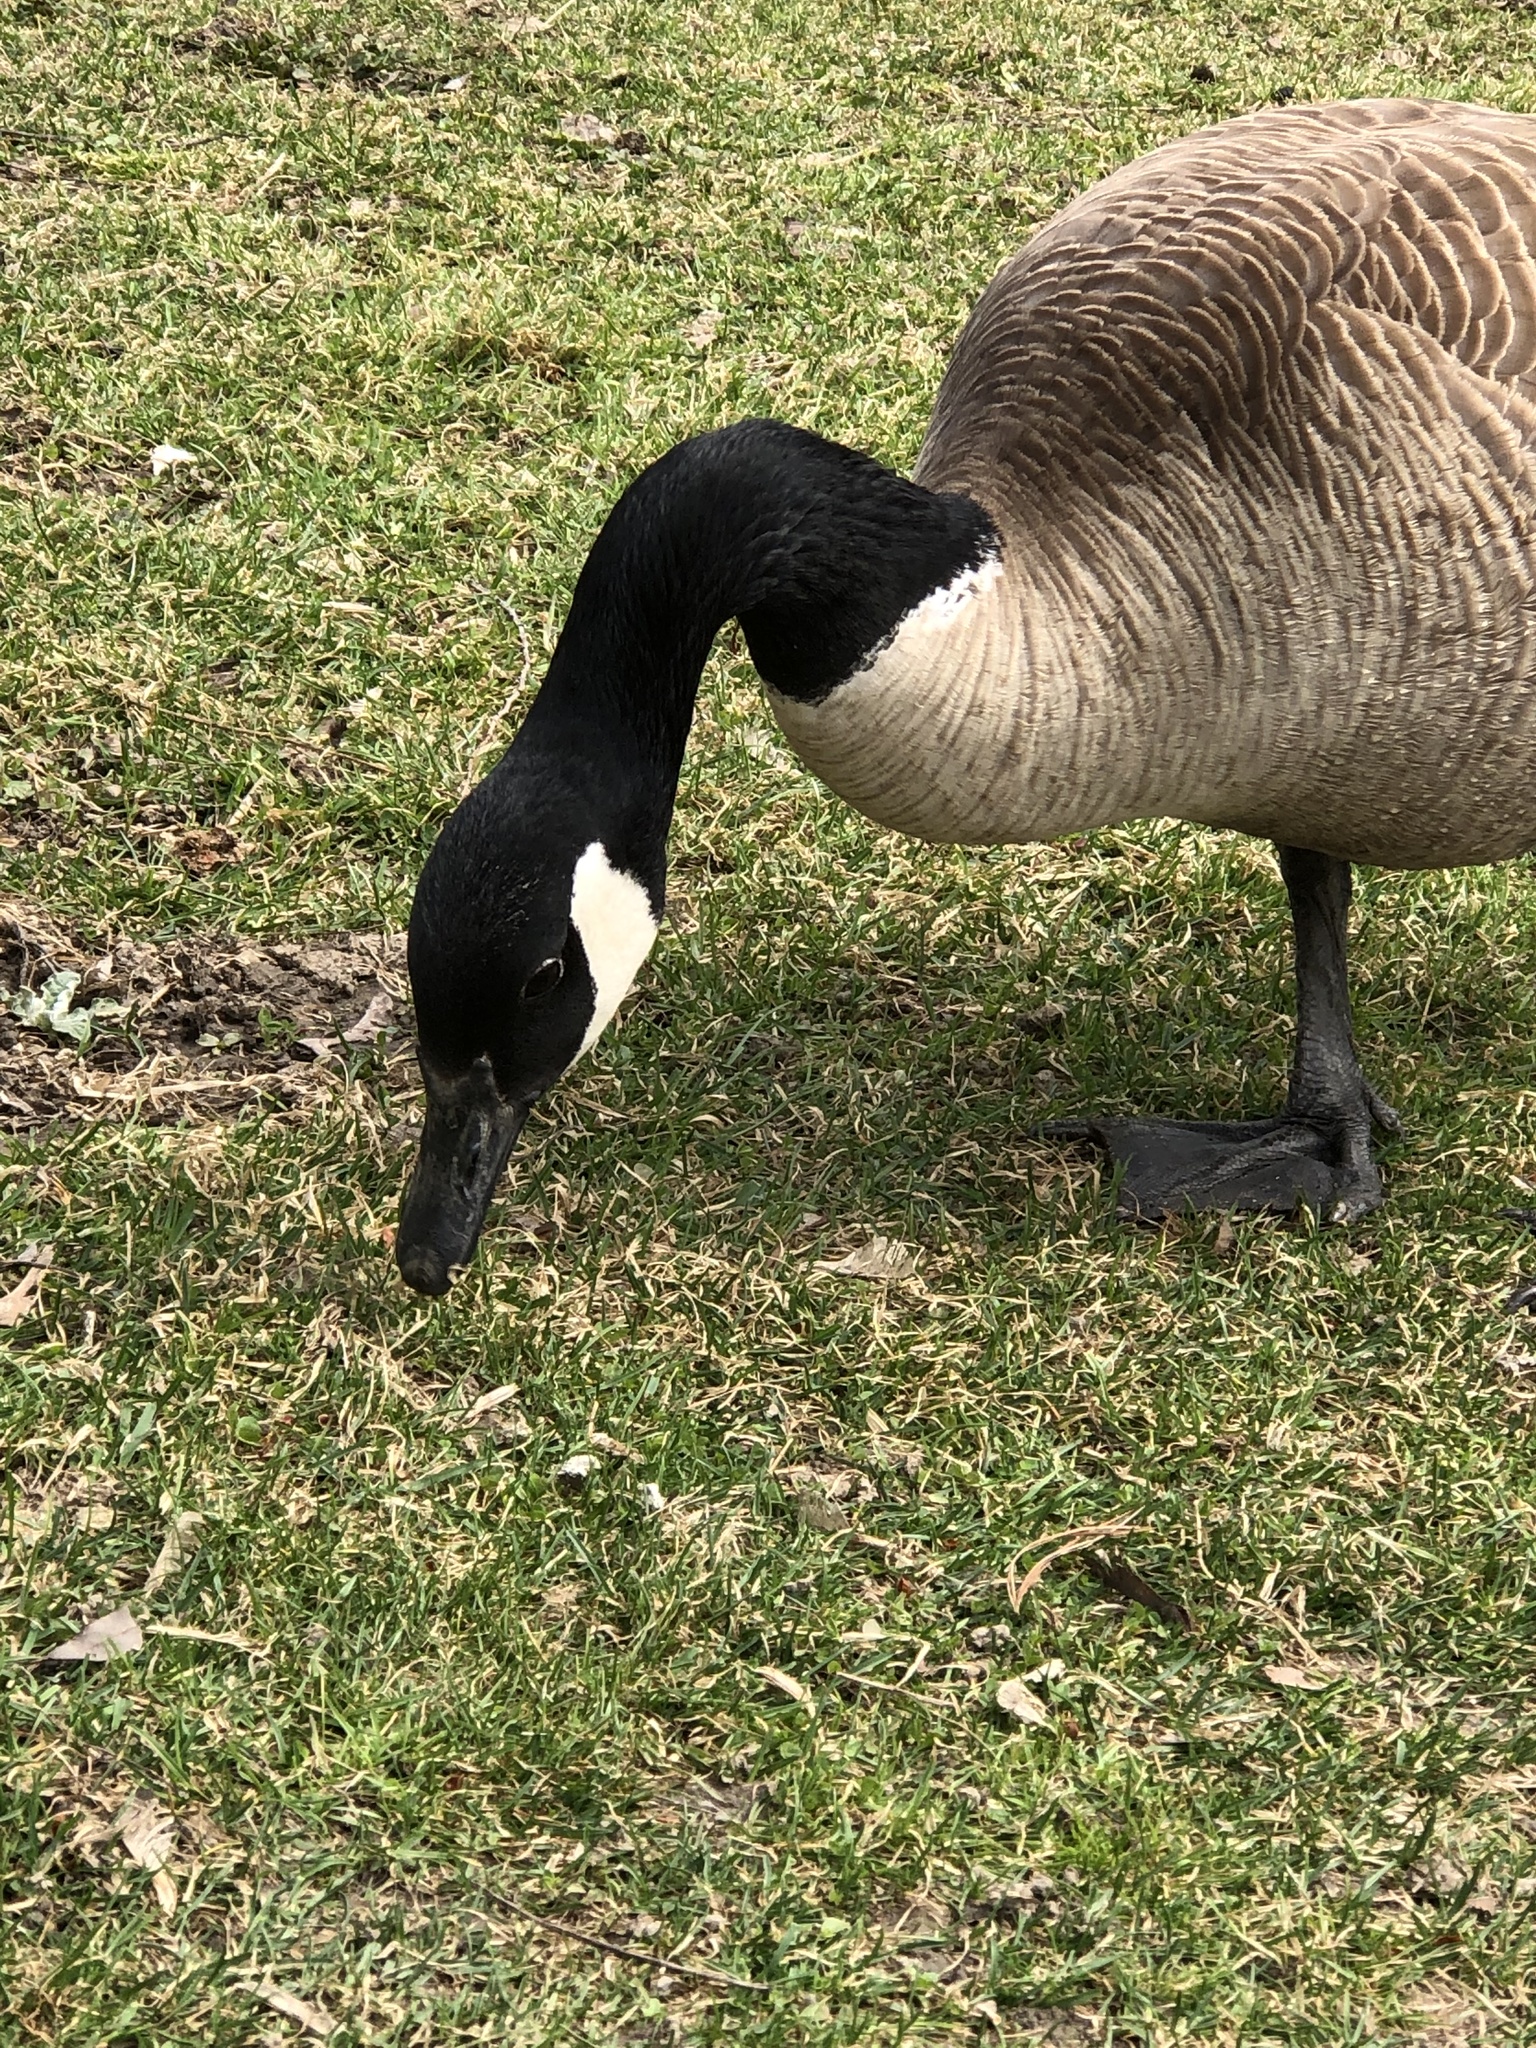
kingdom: Animalia
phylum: Chordata
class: Aves
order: Anseriformes
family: Anatidae
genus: Branta
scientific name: Branta canadensis
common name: Canada goose
